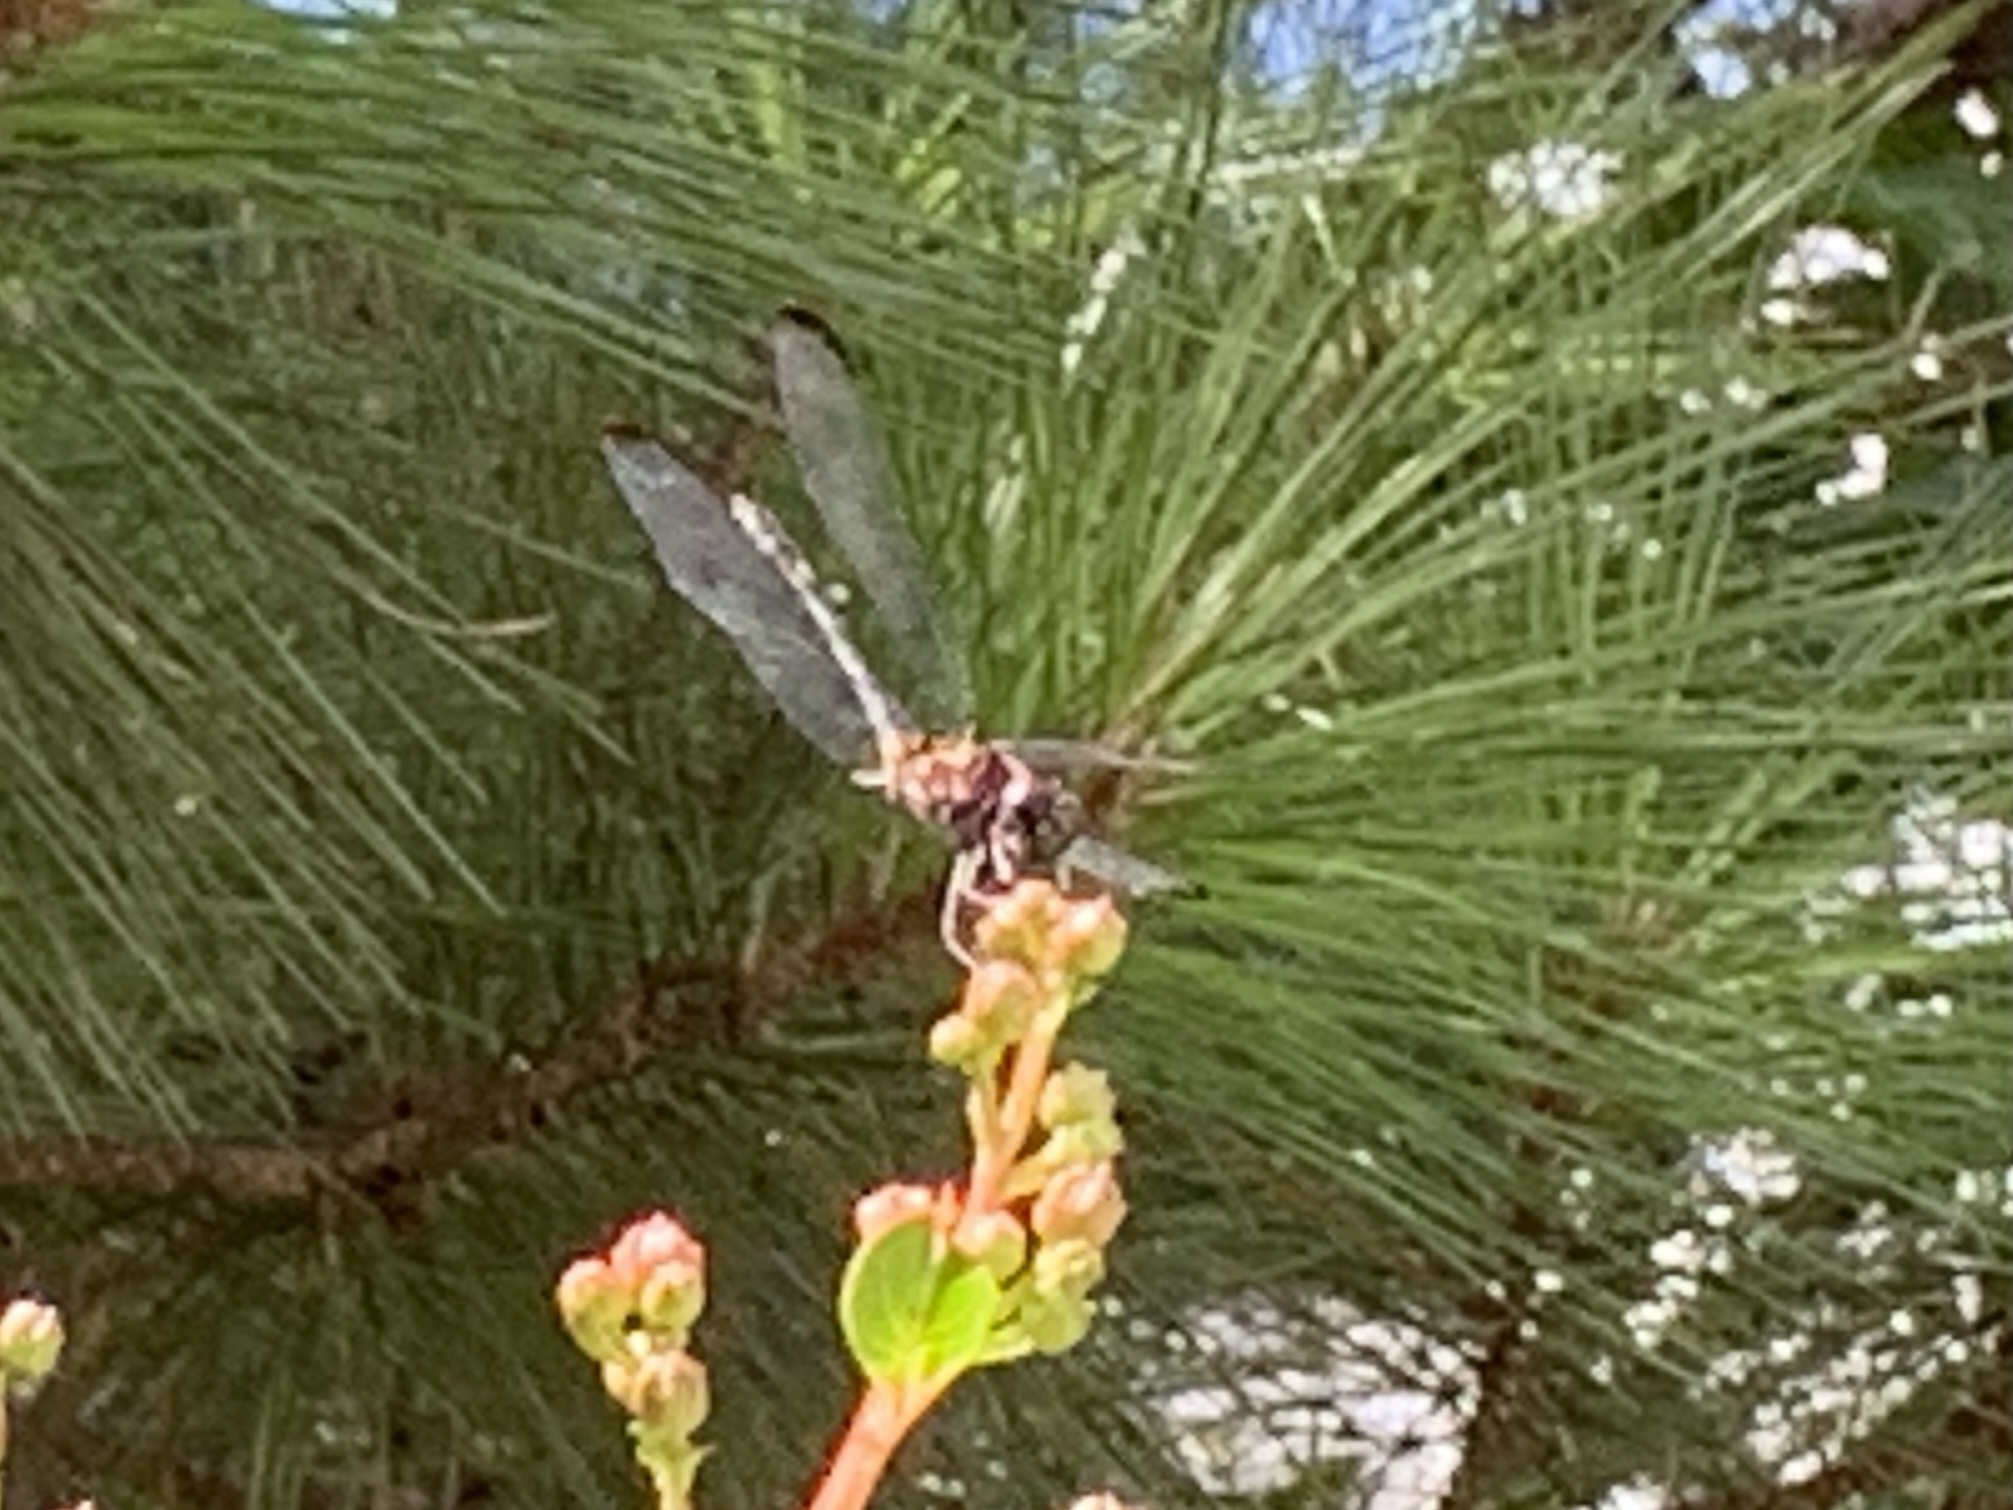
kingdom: Animalia
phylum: Arthropoda
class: Insecta
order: Odonata
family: Libellulidae
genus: Dythemis
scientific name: Dythemis velox
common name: Swift setwing
